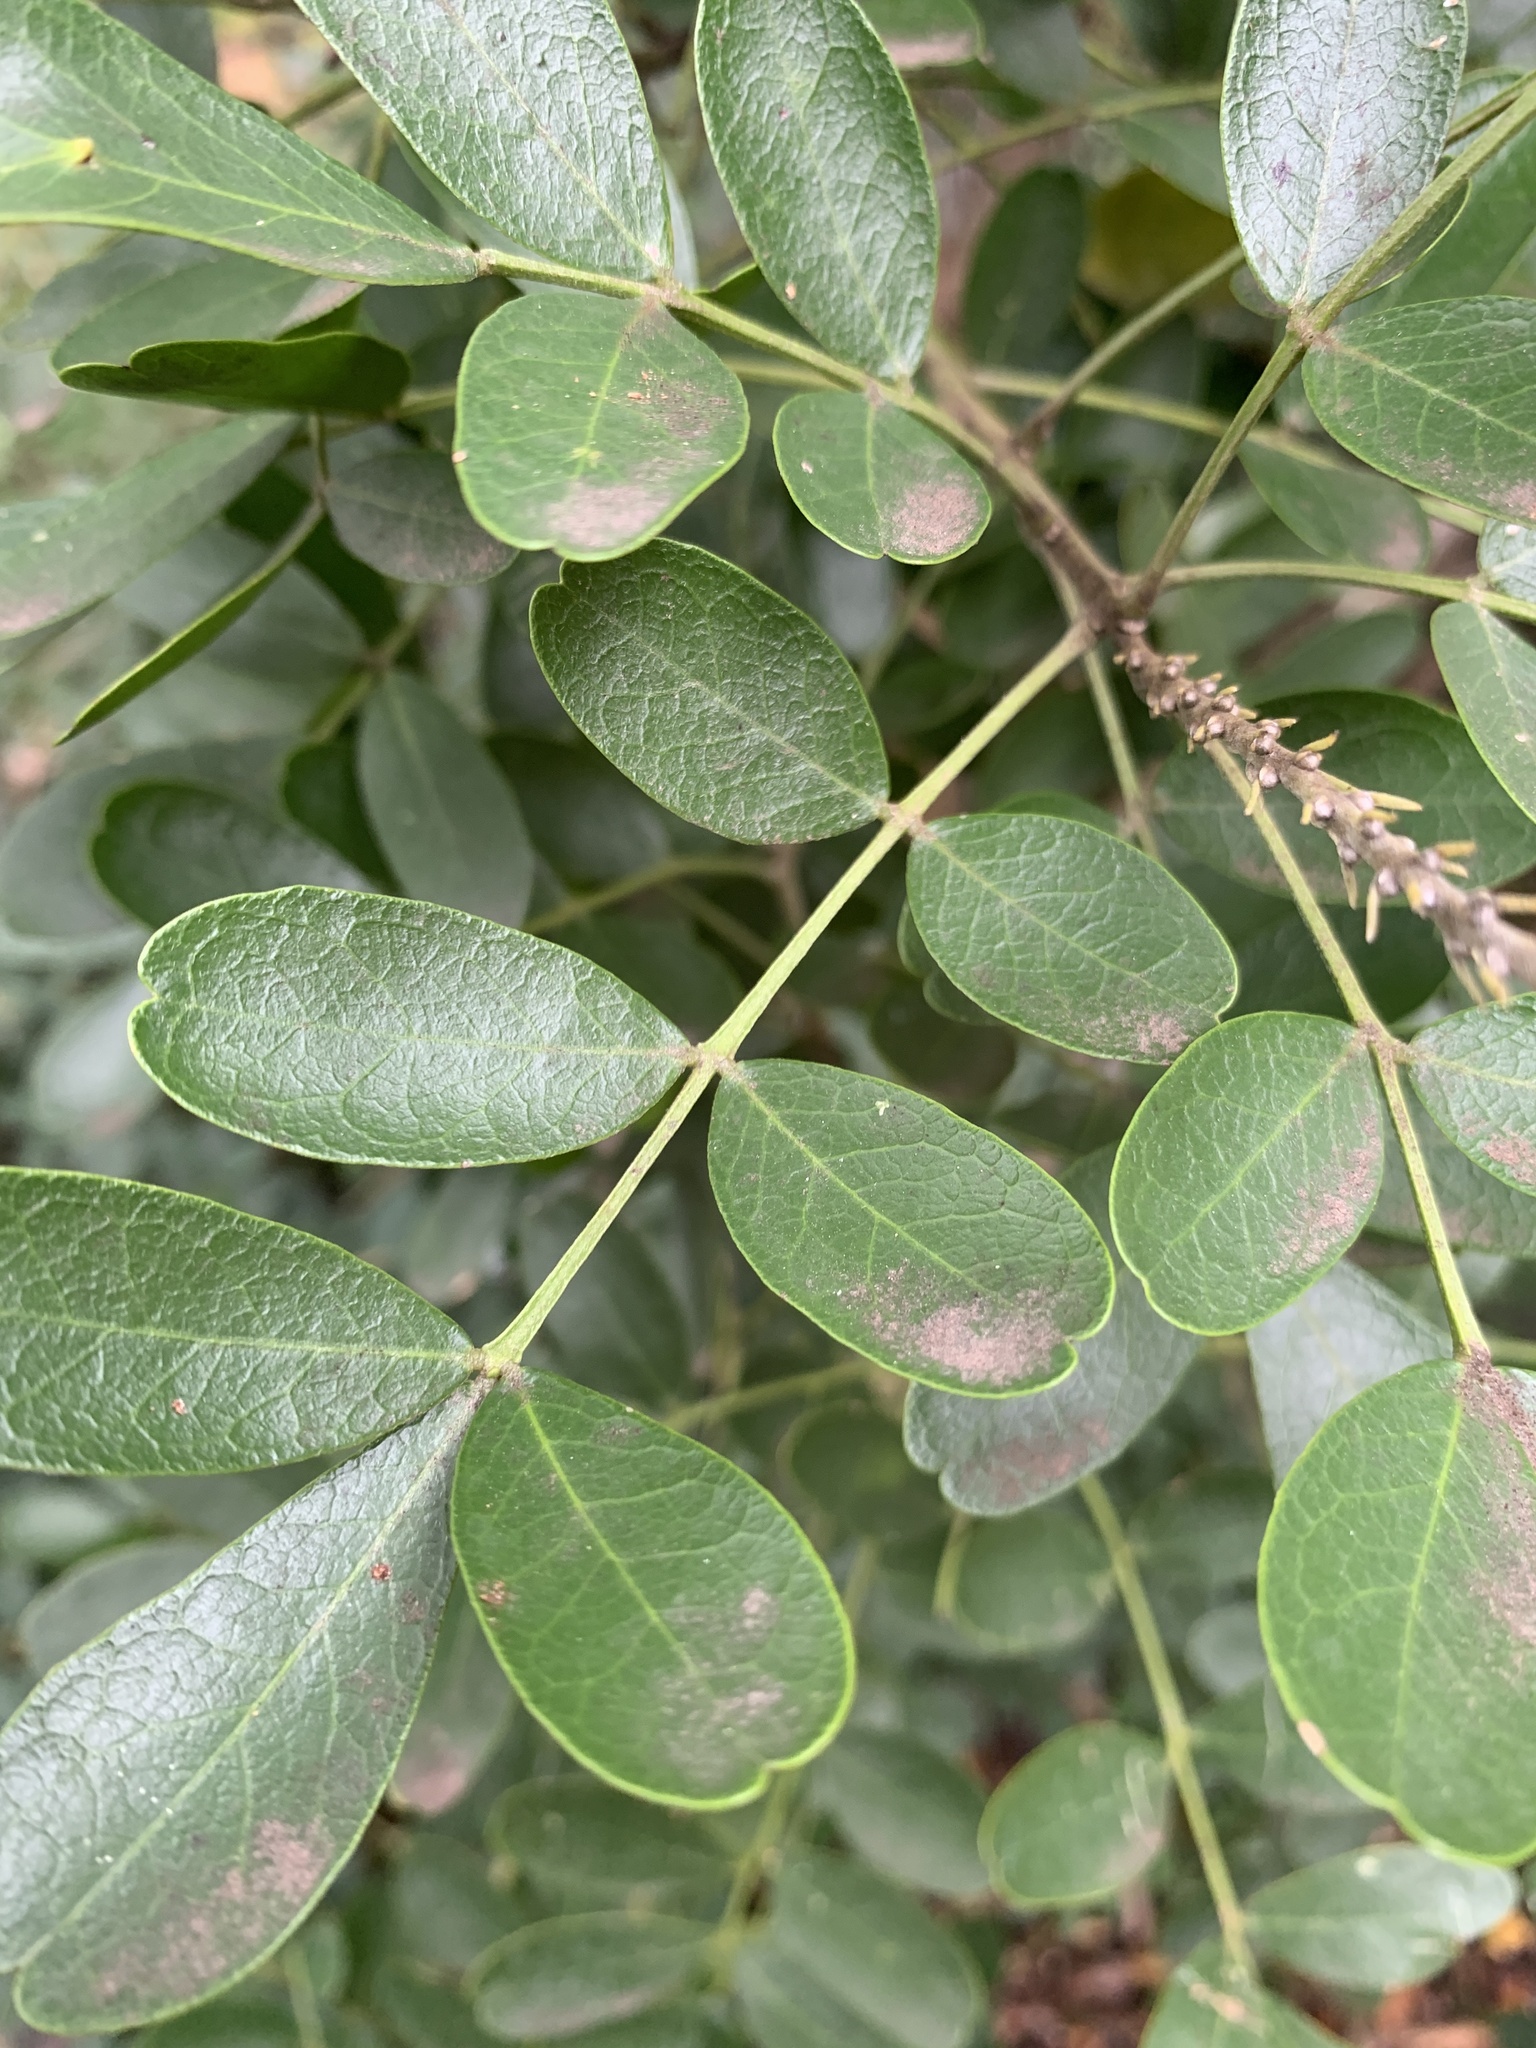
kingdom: Plantae
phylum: Tracheophyta
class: Magnoliopsida
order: Fabales
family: Fabaceae
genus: Dermatophyllum
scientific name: Dermatophyllum secundiflorum
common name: Texas-mountain-laurel
